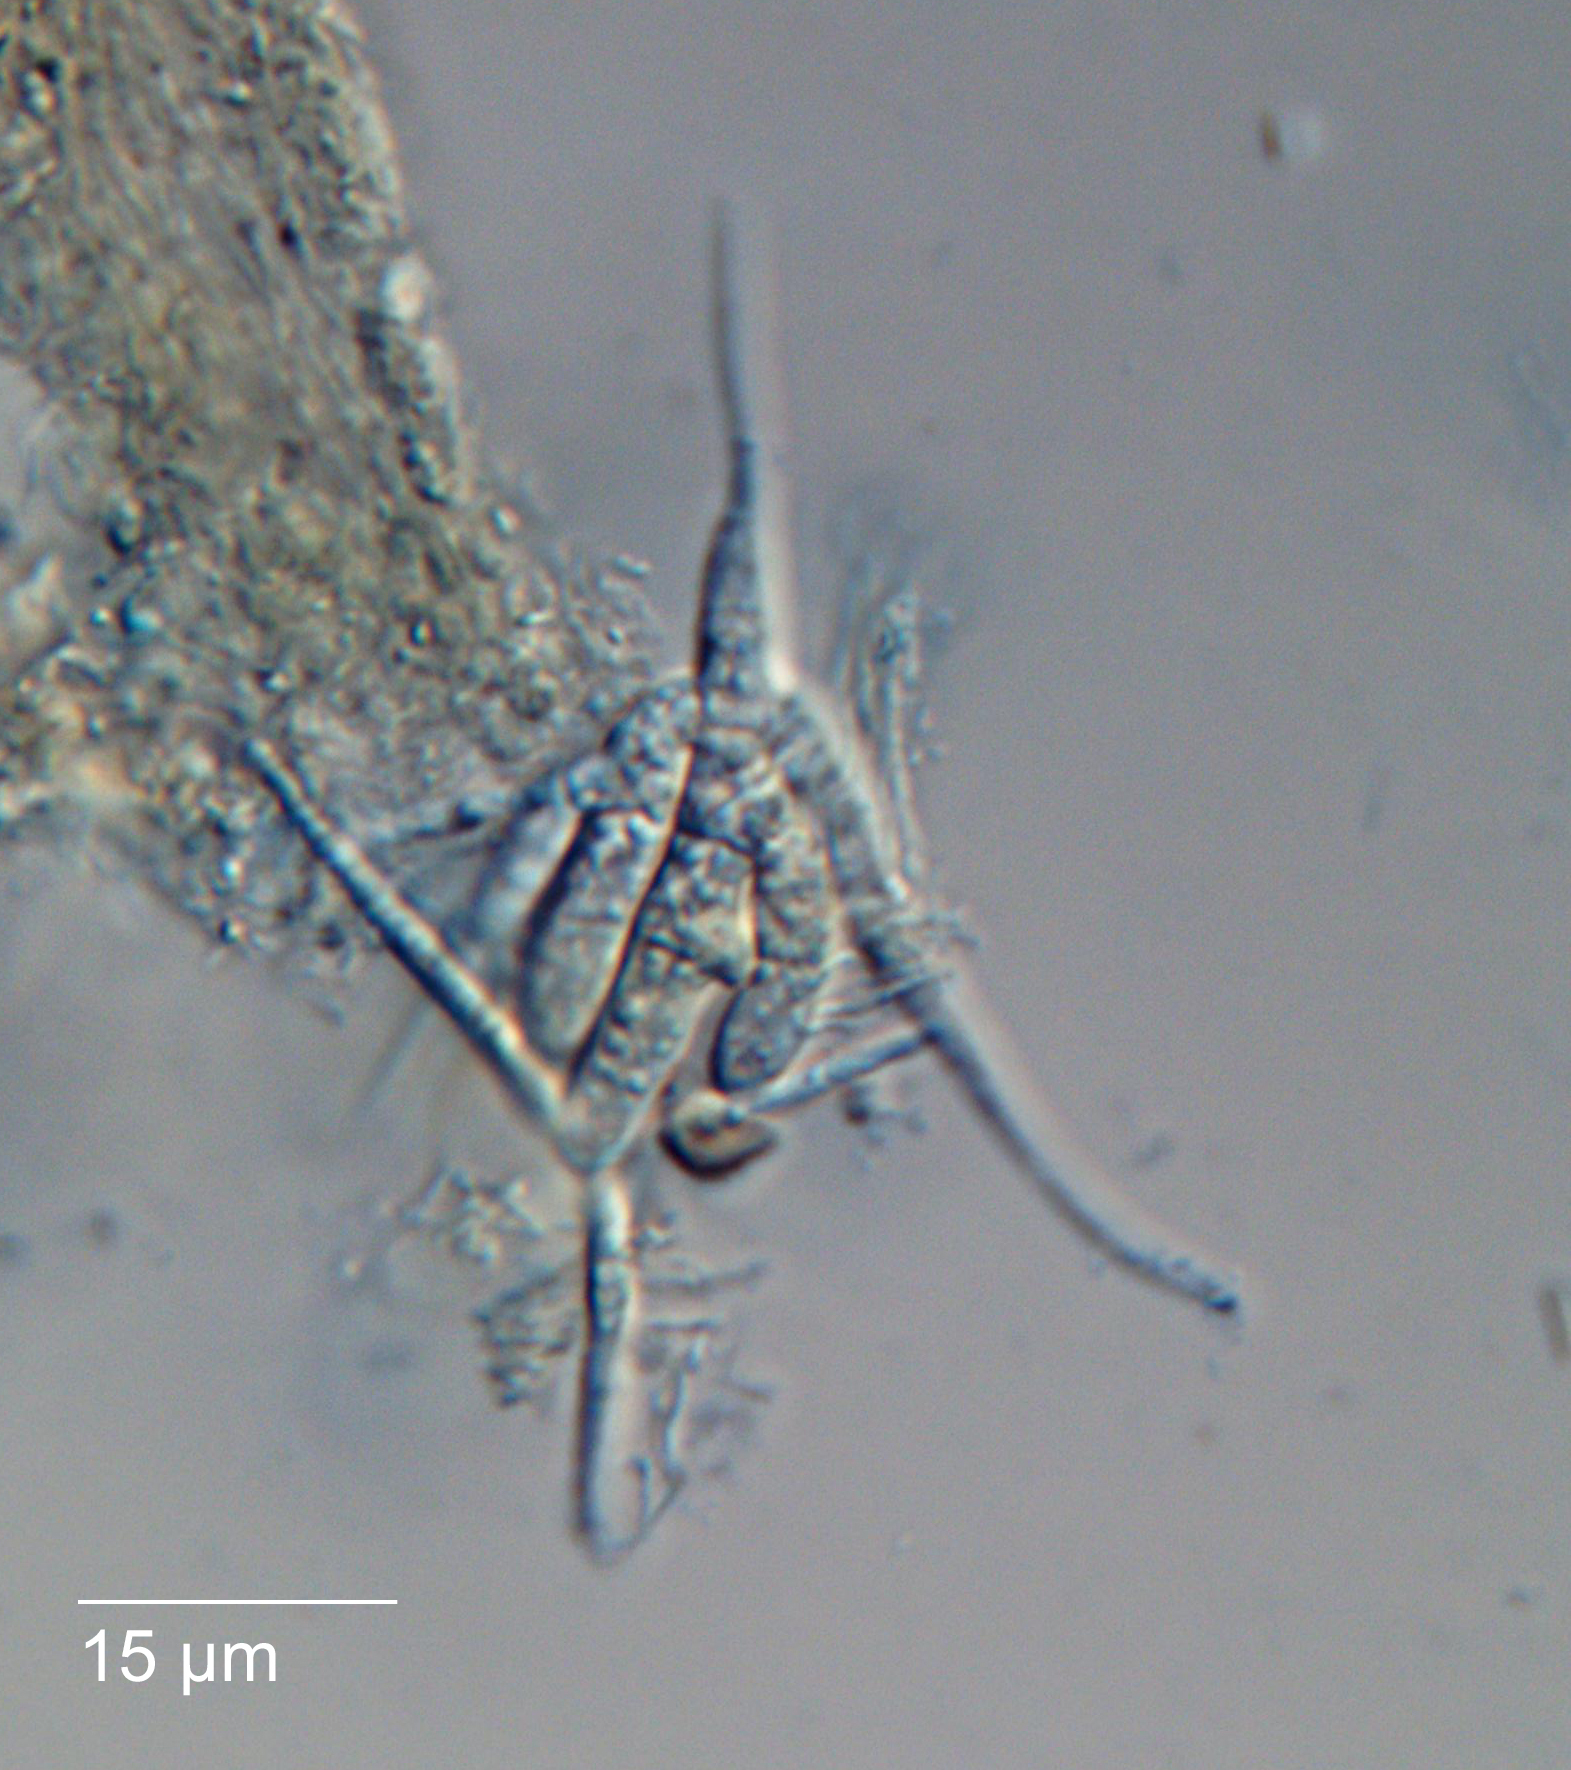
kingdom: Fungi
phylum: Ascomycota
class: Leotiomycetes
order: Helotiales
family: Helotiaceae
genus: Tetracladium
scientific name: Tetracladium setigerum
